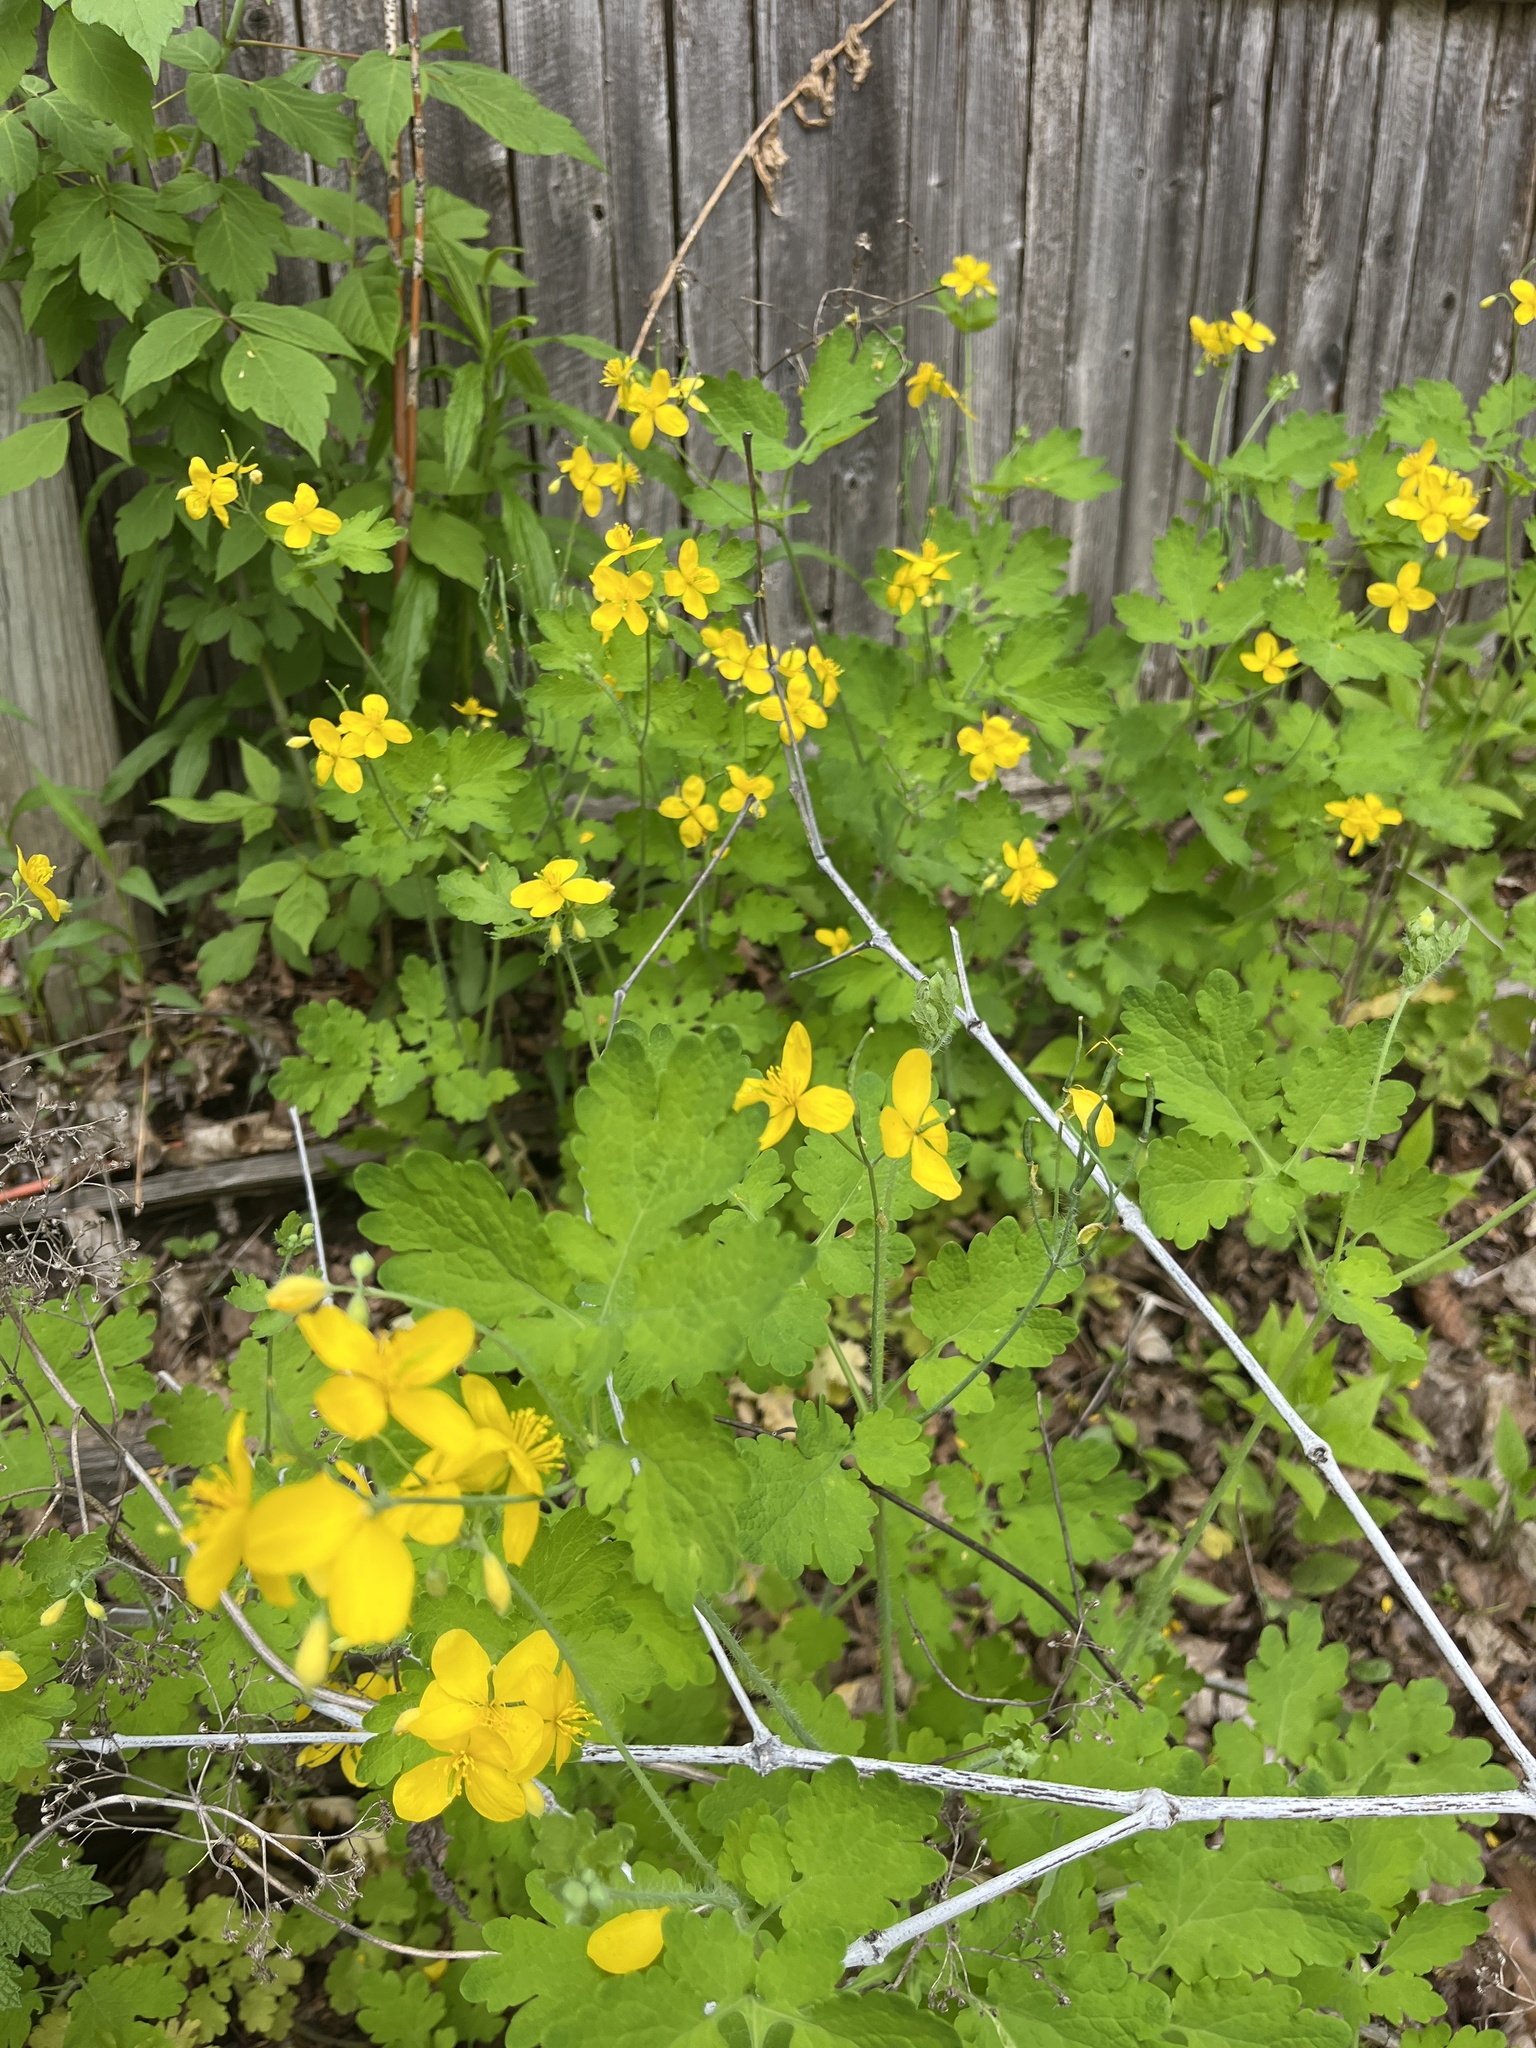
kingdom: Plantae
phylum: Tracheophyta
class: Magnoliopsida
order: Ranunculales
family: Papaveraceae
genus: Chelidonium
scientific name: Chelidonium majus
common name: Greater celandine
